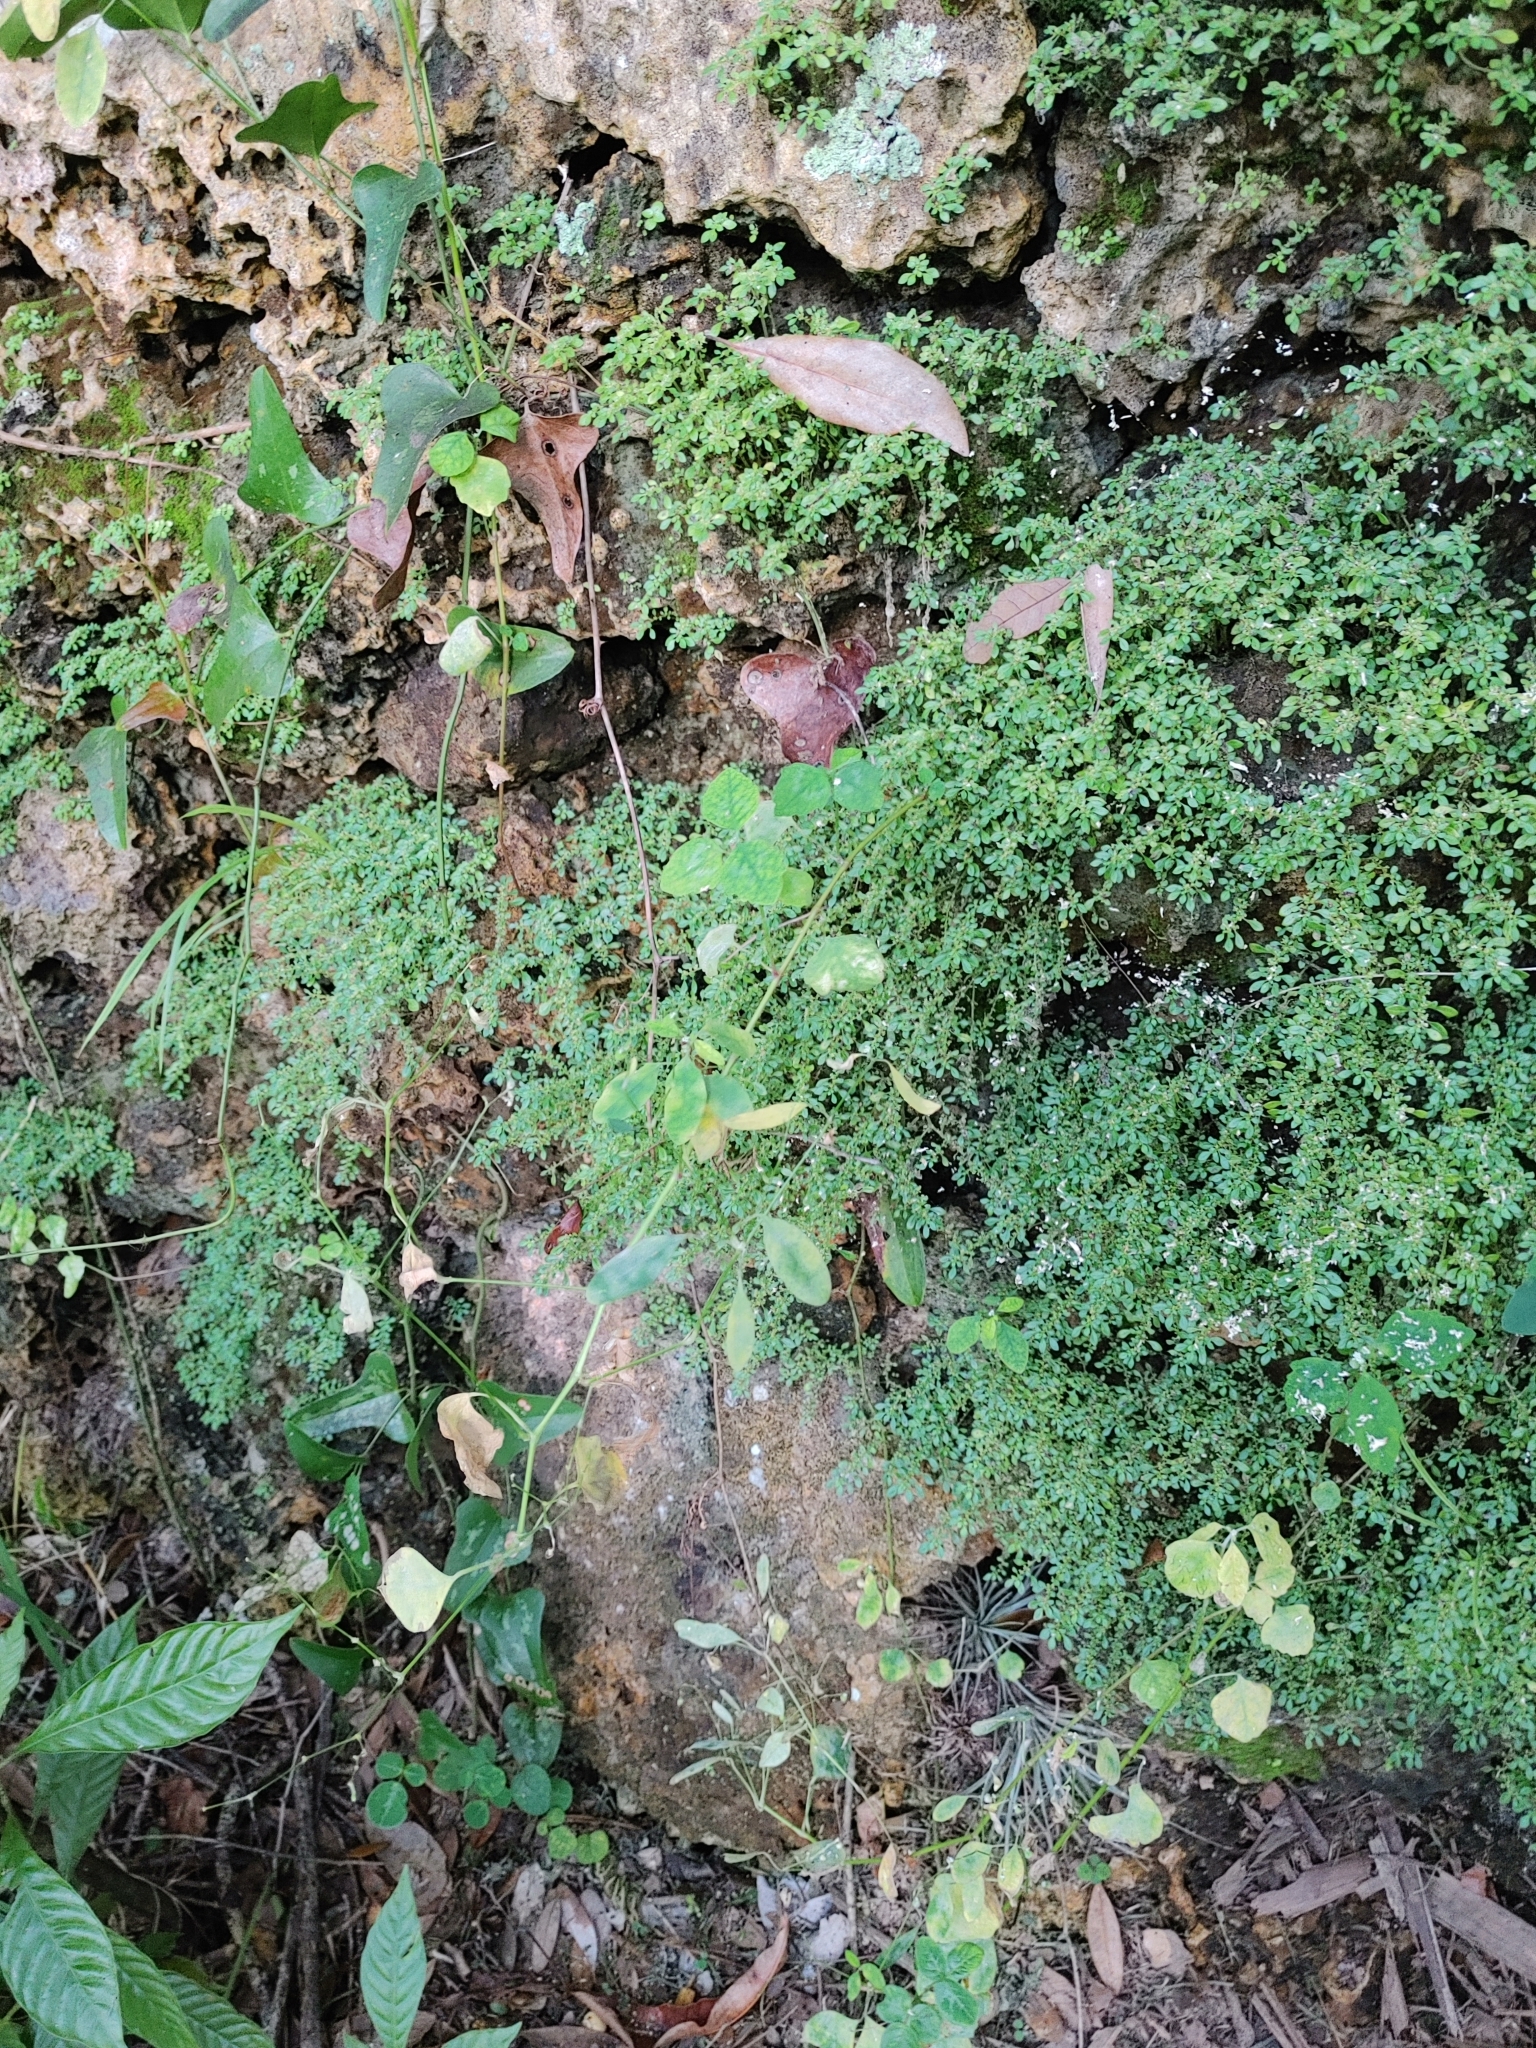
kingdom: Plantae
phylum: Tracheophyta
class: Magnoliopsida
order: Rosales
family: Urticaceae
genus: Pilea
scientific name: Pilea microphylla
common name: Artillery-plant
